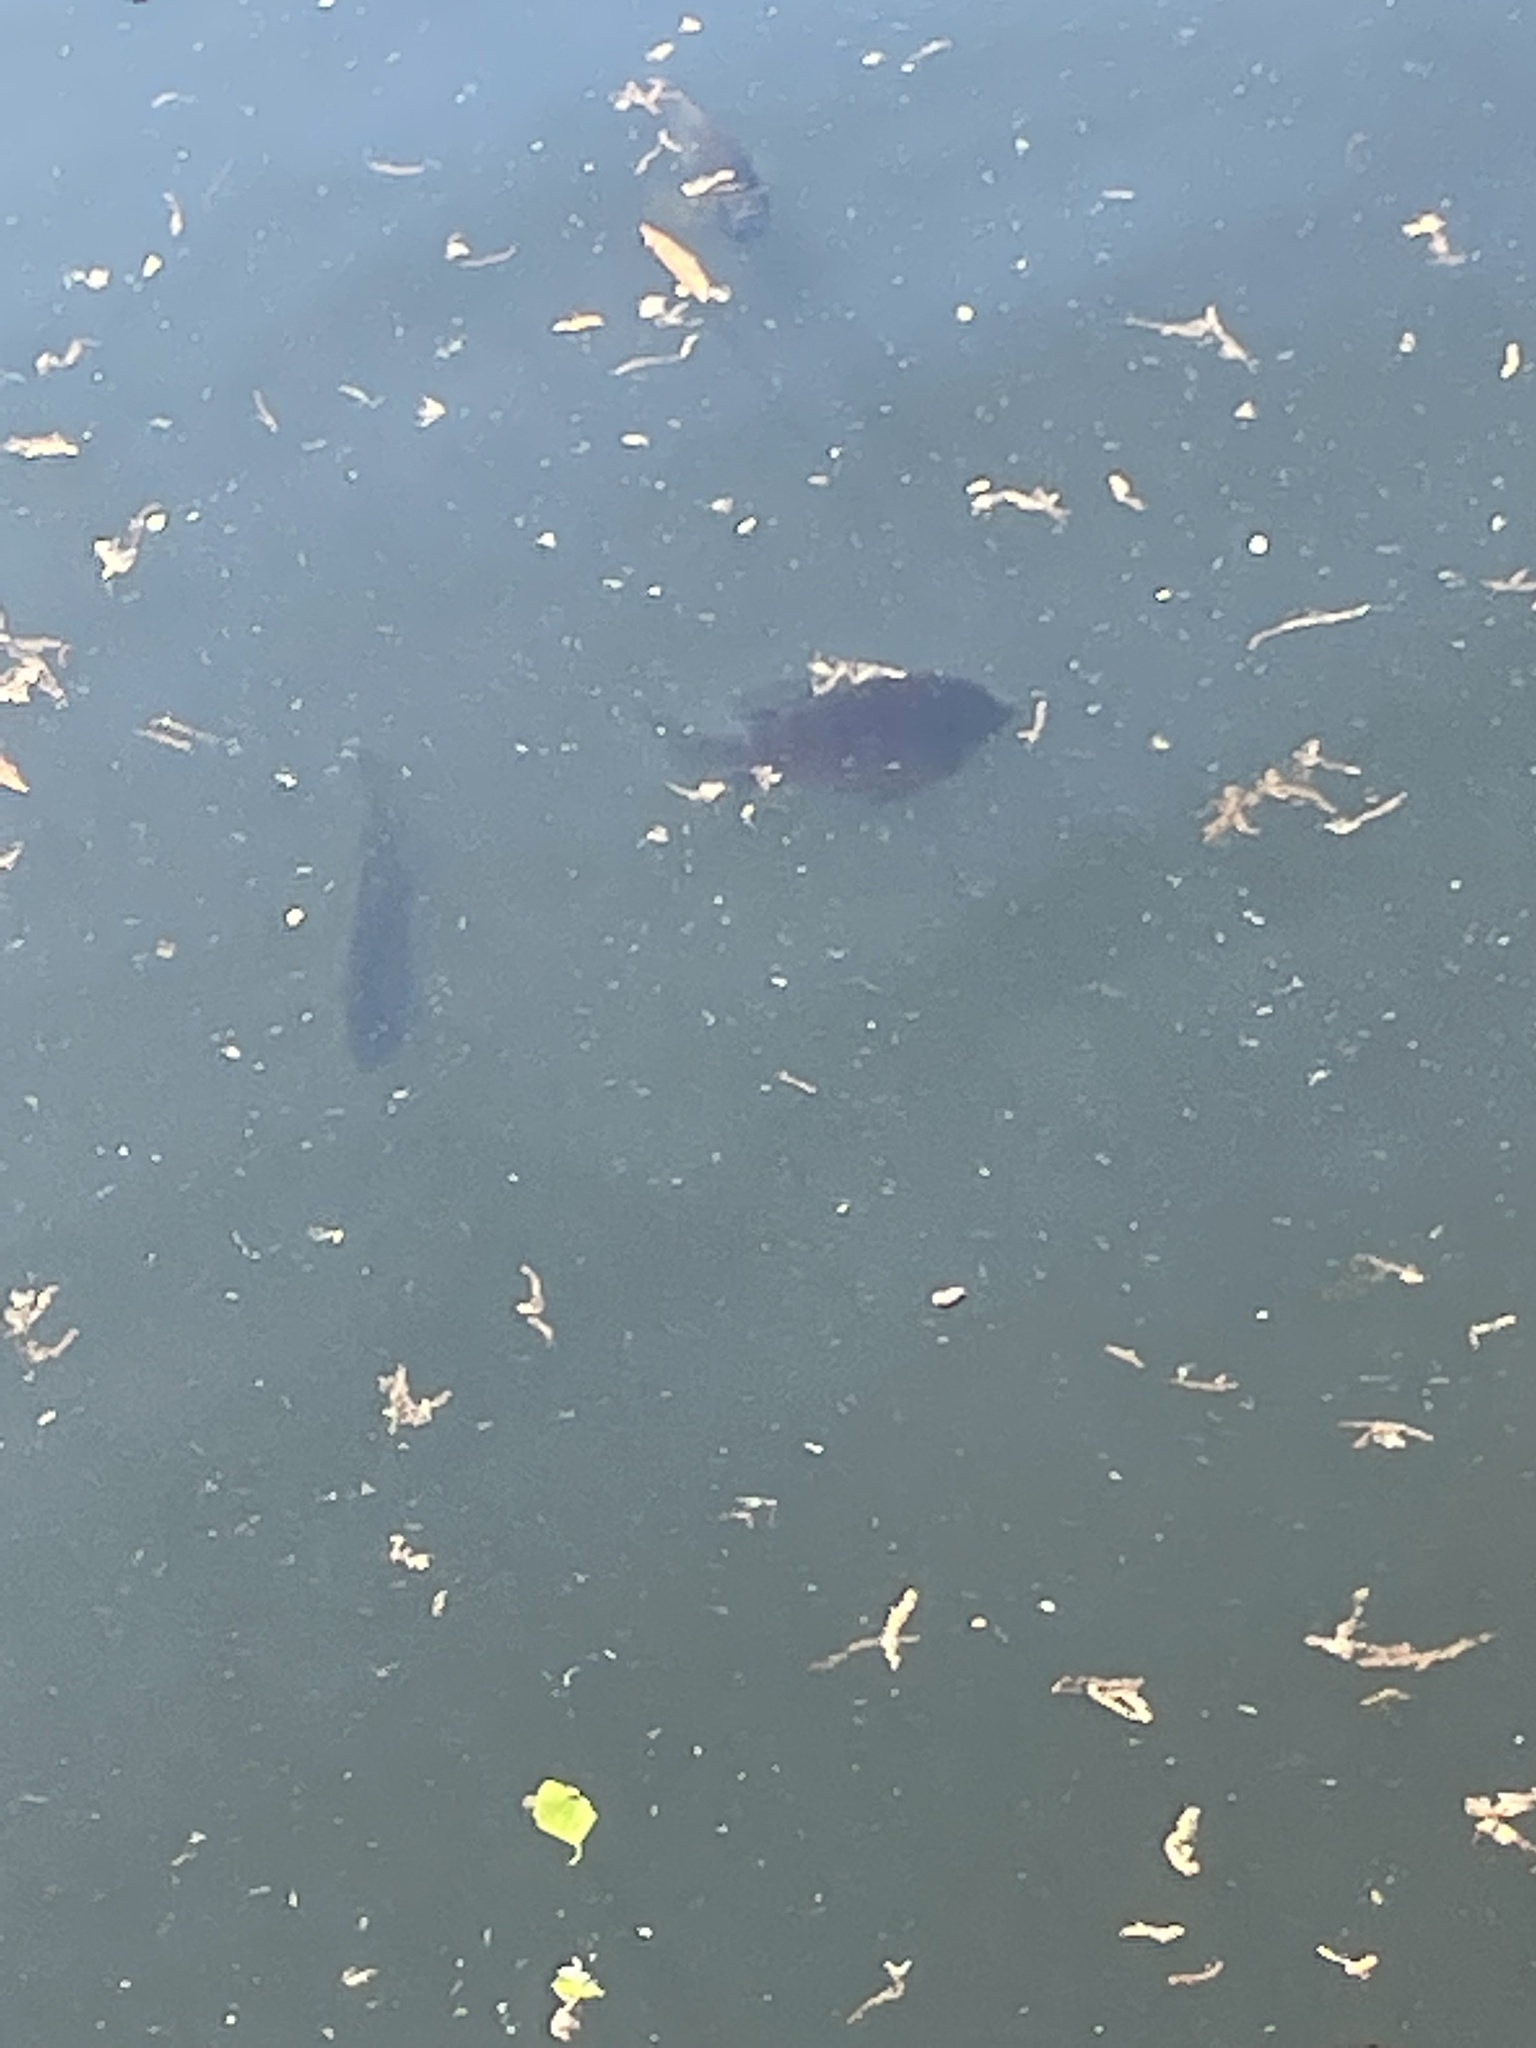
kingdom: Animalia
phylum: Chordata
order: Perciformes
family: Centrarchidae
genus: Lepomis
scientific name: Lepomis macrochirus
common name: Bluegill
